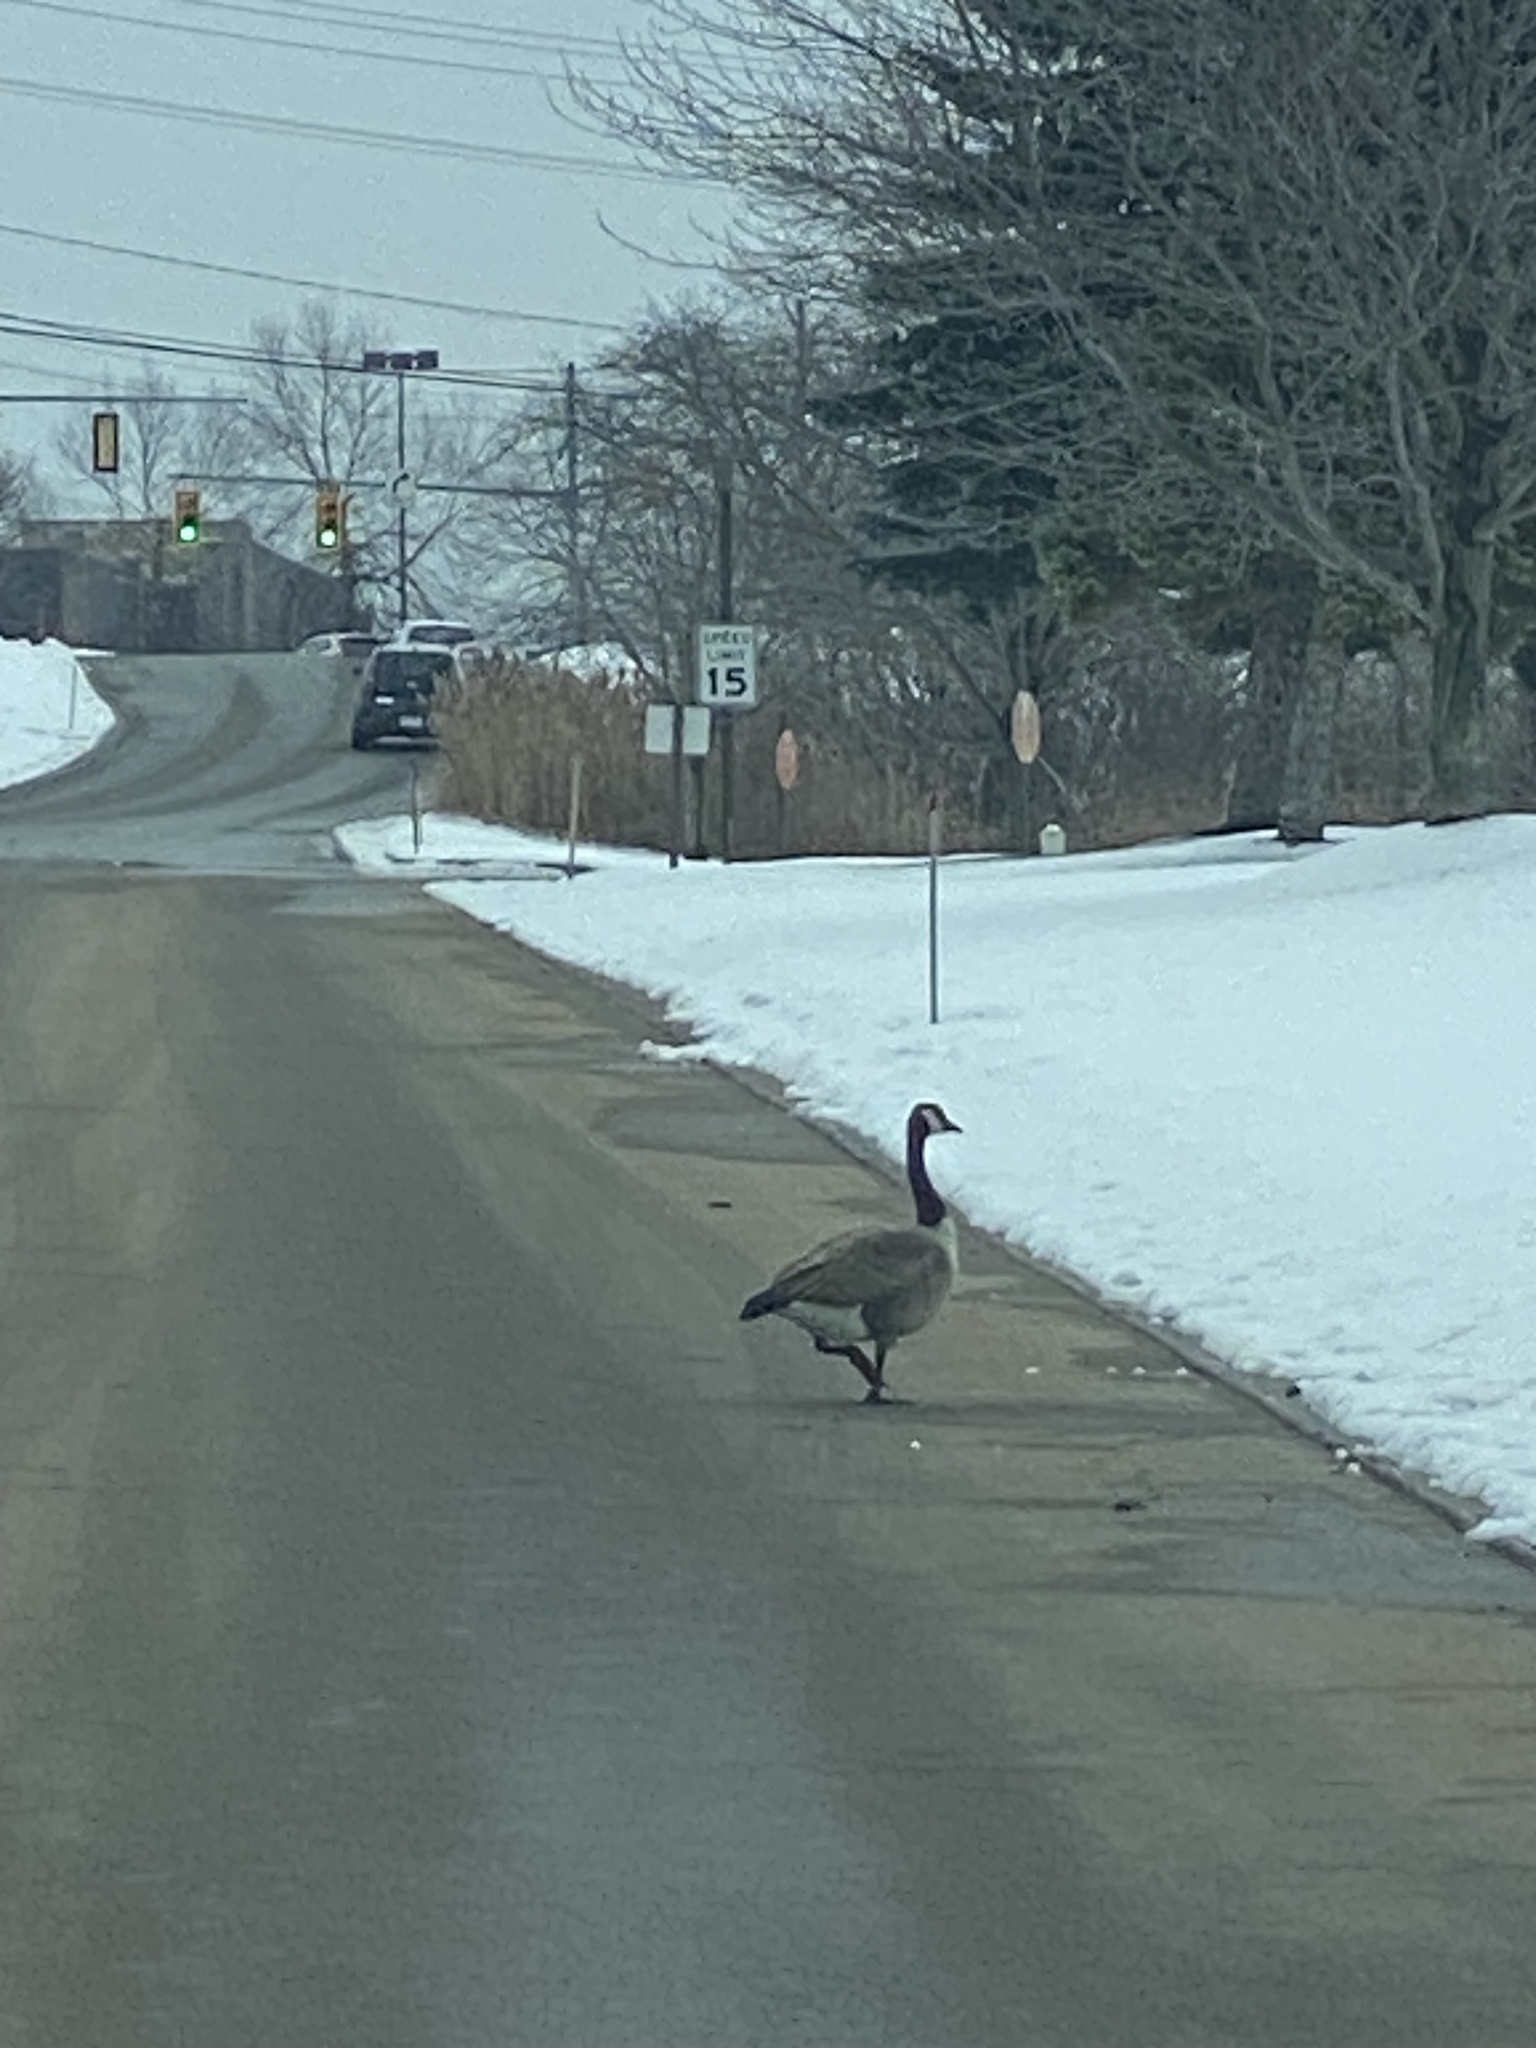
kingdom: Animalia
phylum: Chordata
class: Aves
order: Anseriformes
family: Anatidae
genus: Branta
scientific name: Branta canadensis
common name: Canada goose
